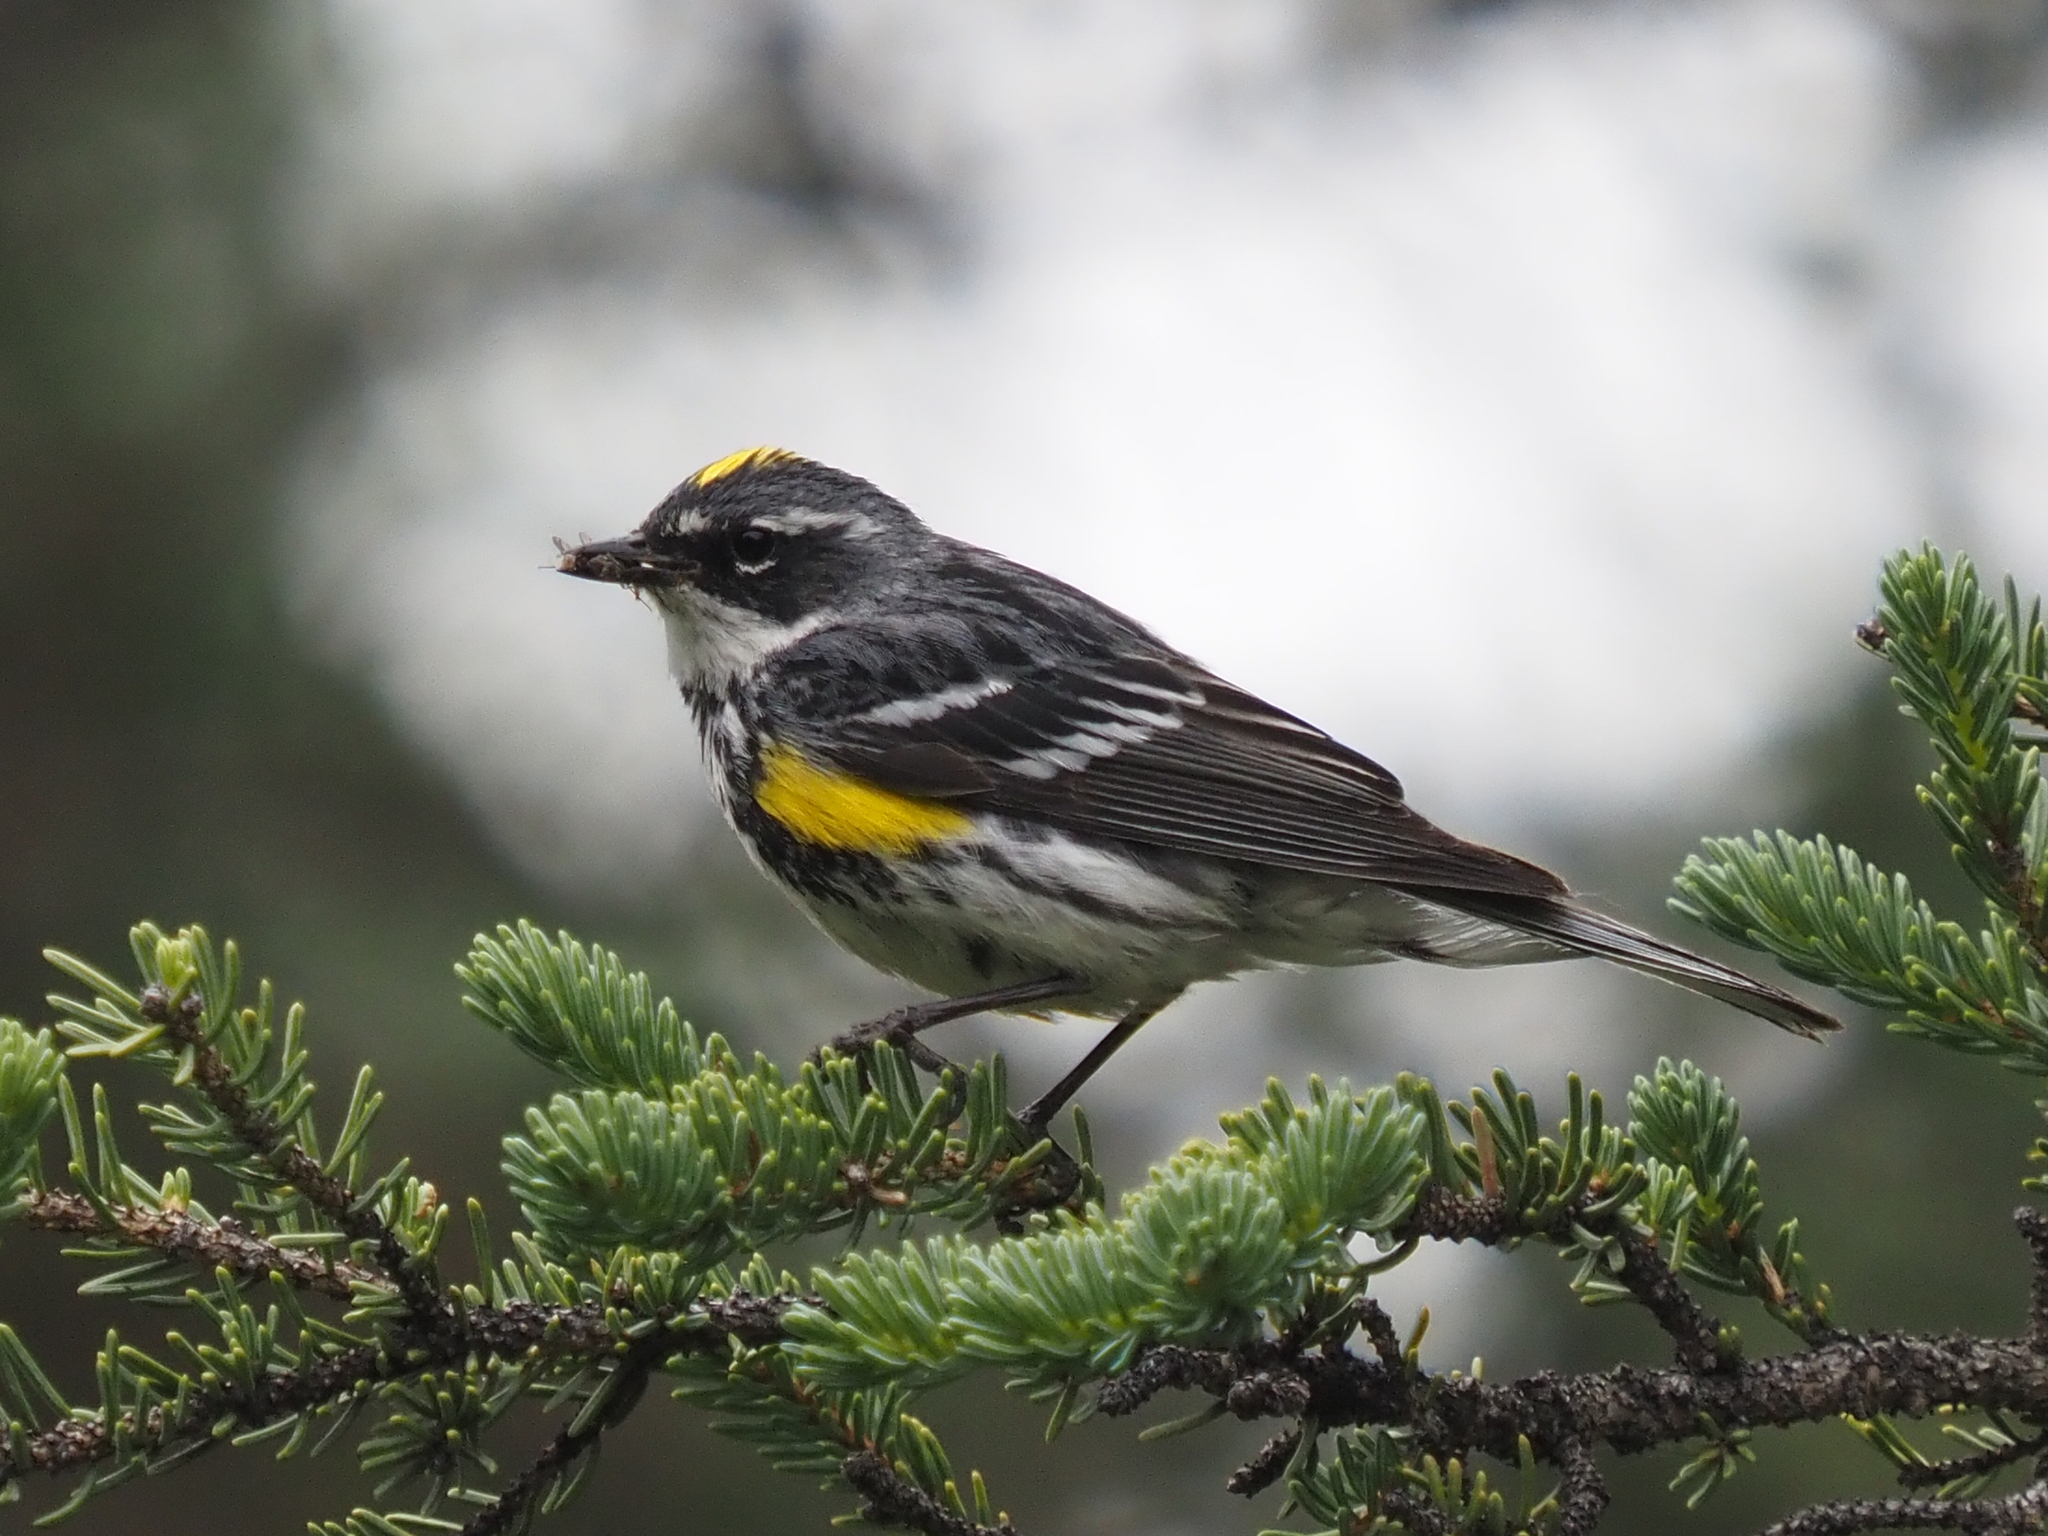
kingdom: Animalia
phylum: Chordata
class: Aves
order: Passeriformes
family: Parulidae
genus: Setophaga
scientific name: Setophaga coronata
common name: Myrtle warbler
